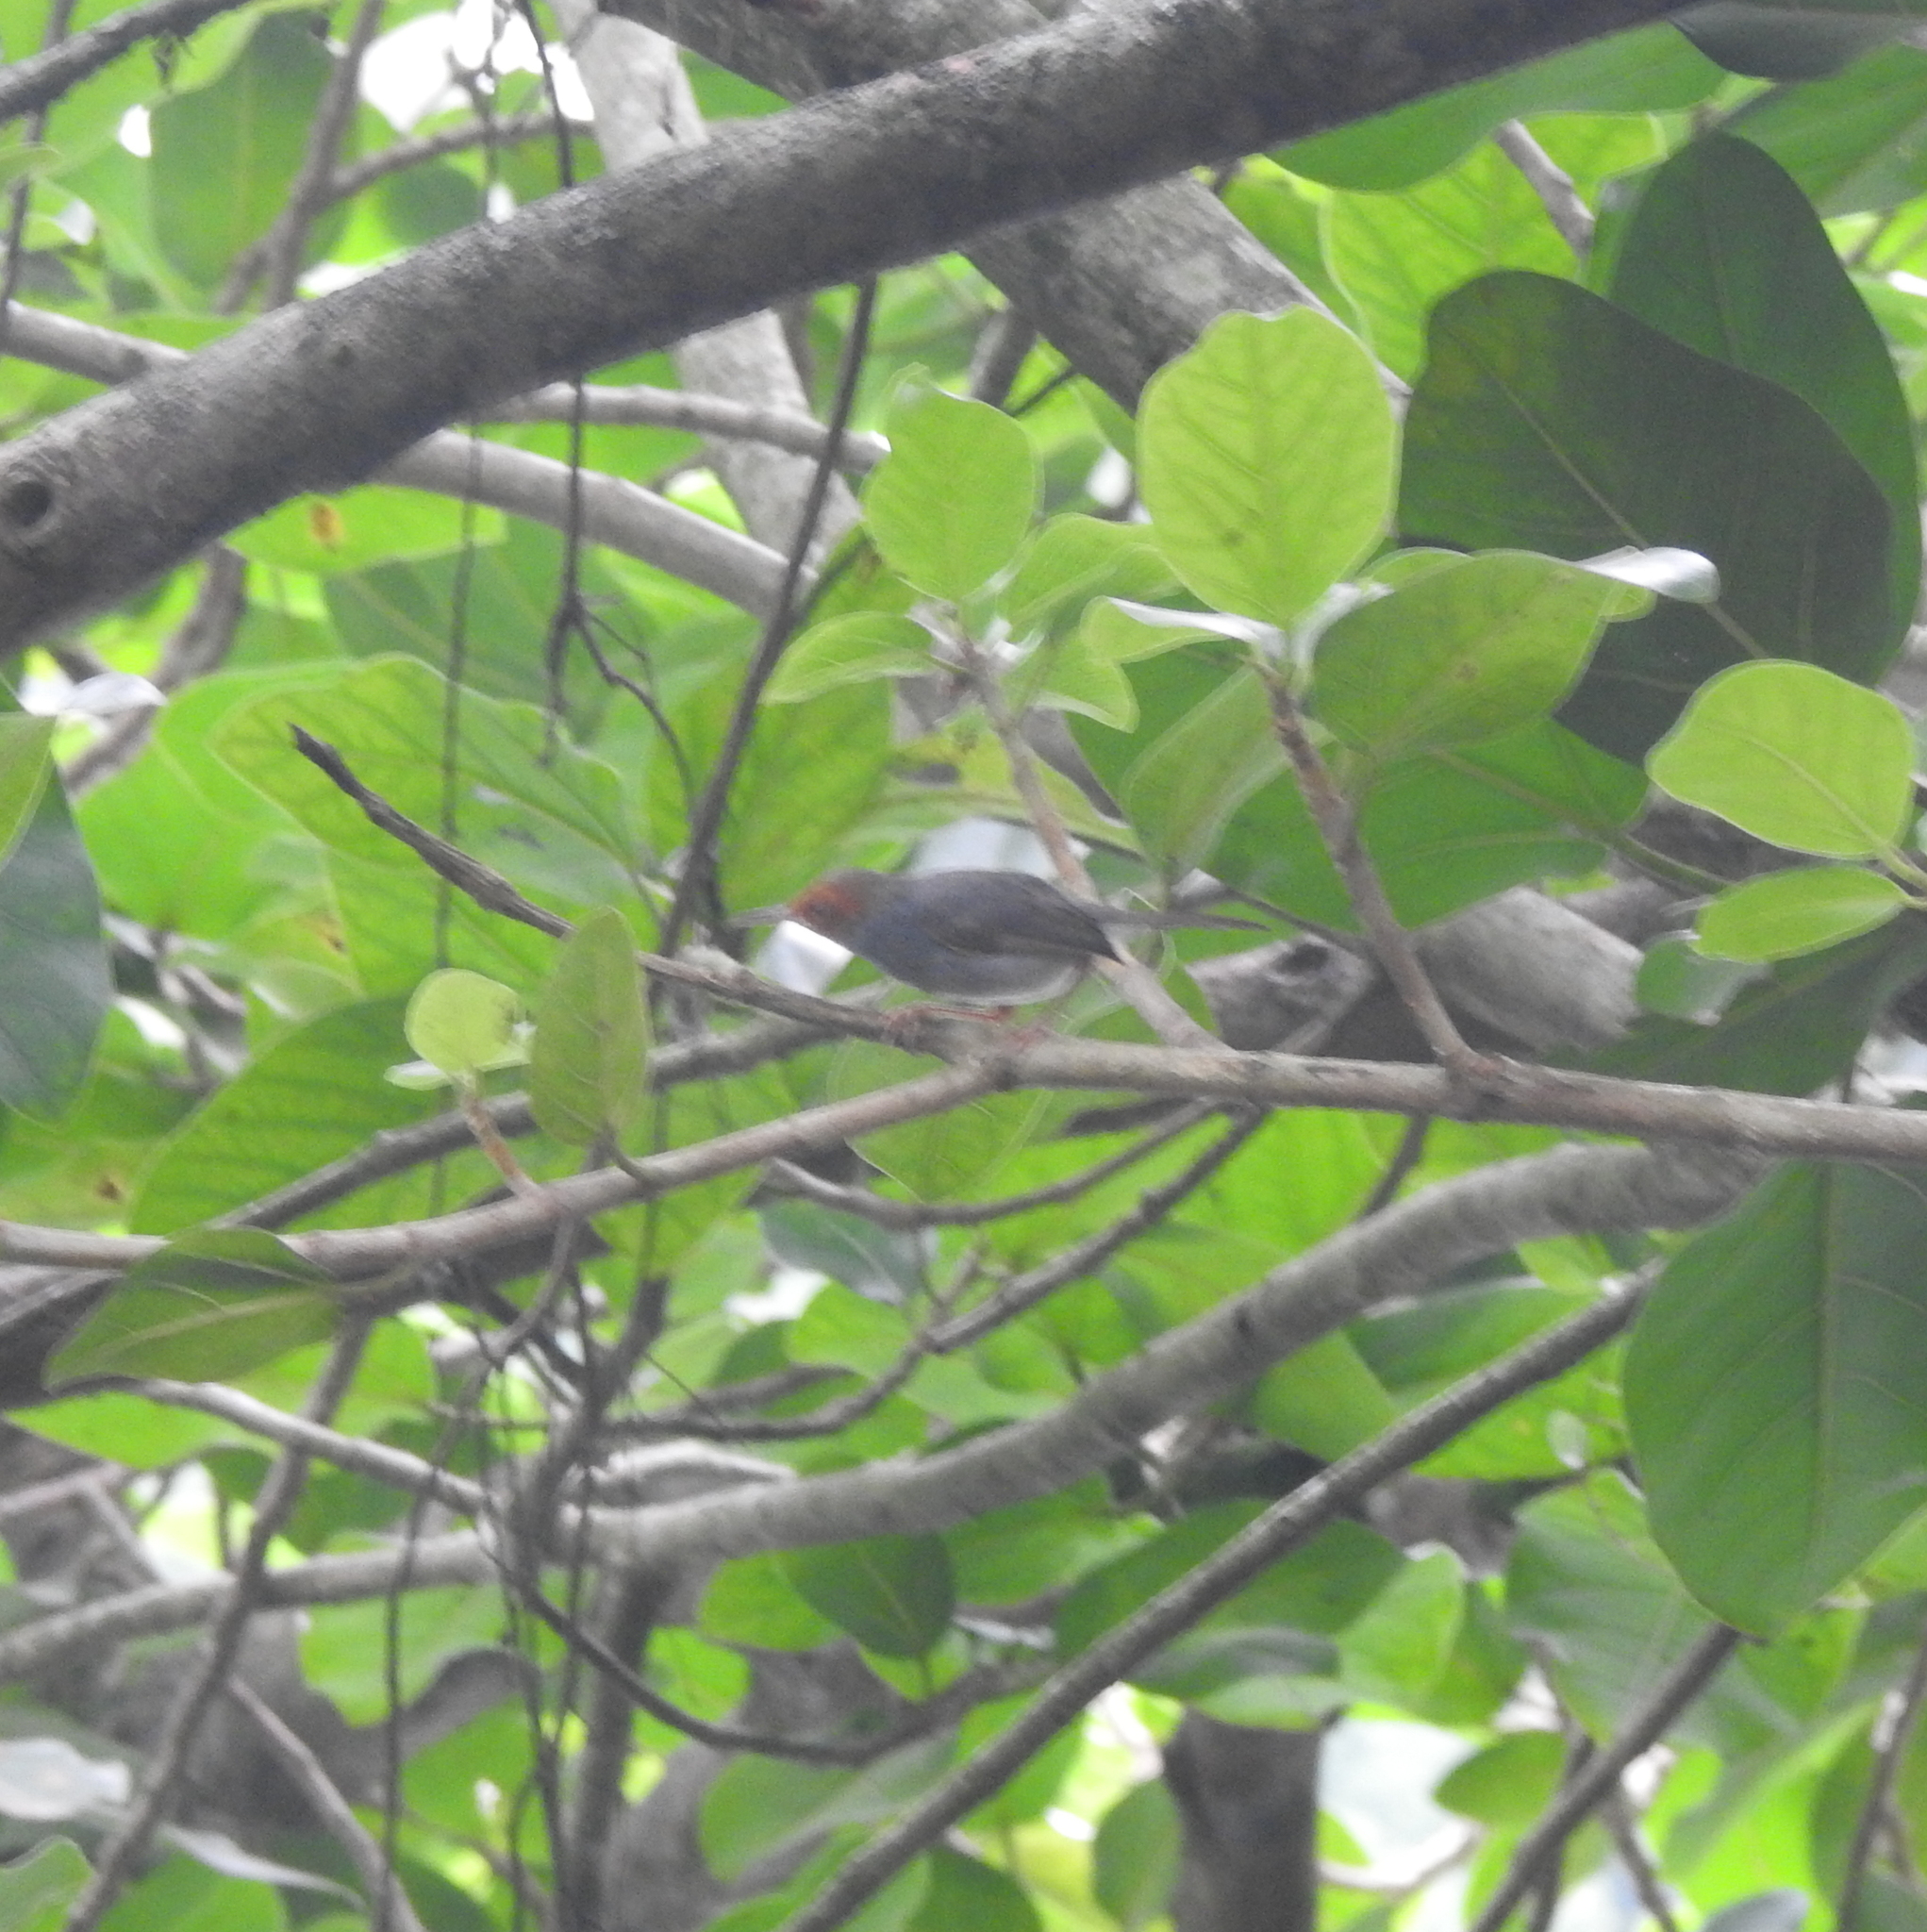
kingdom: Animalia
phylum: Chordata
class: Aves
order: Passeriformes
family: Cisticolidae
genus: Orthotomus
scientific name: Orthotomus ruficeps
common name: Ashy tailorbird
